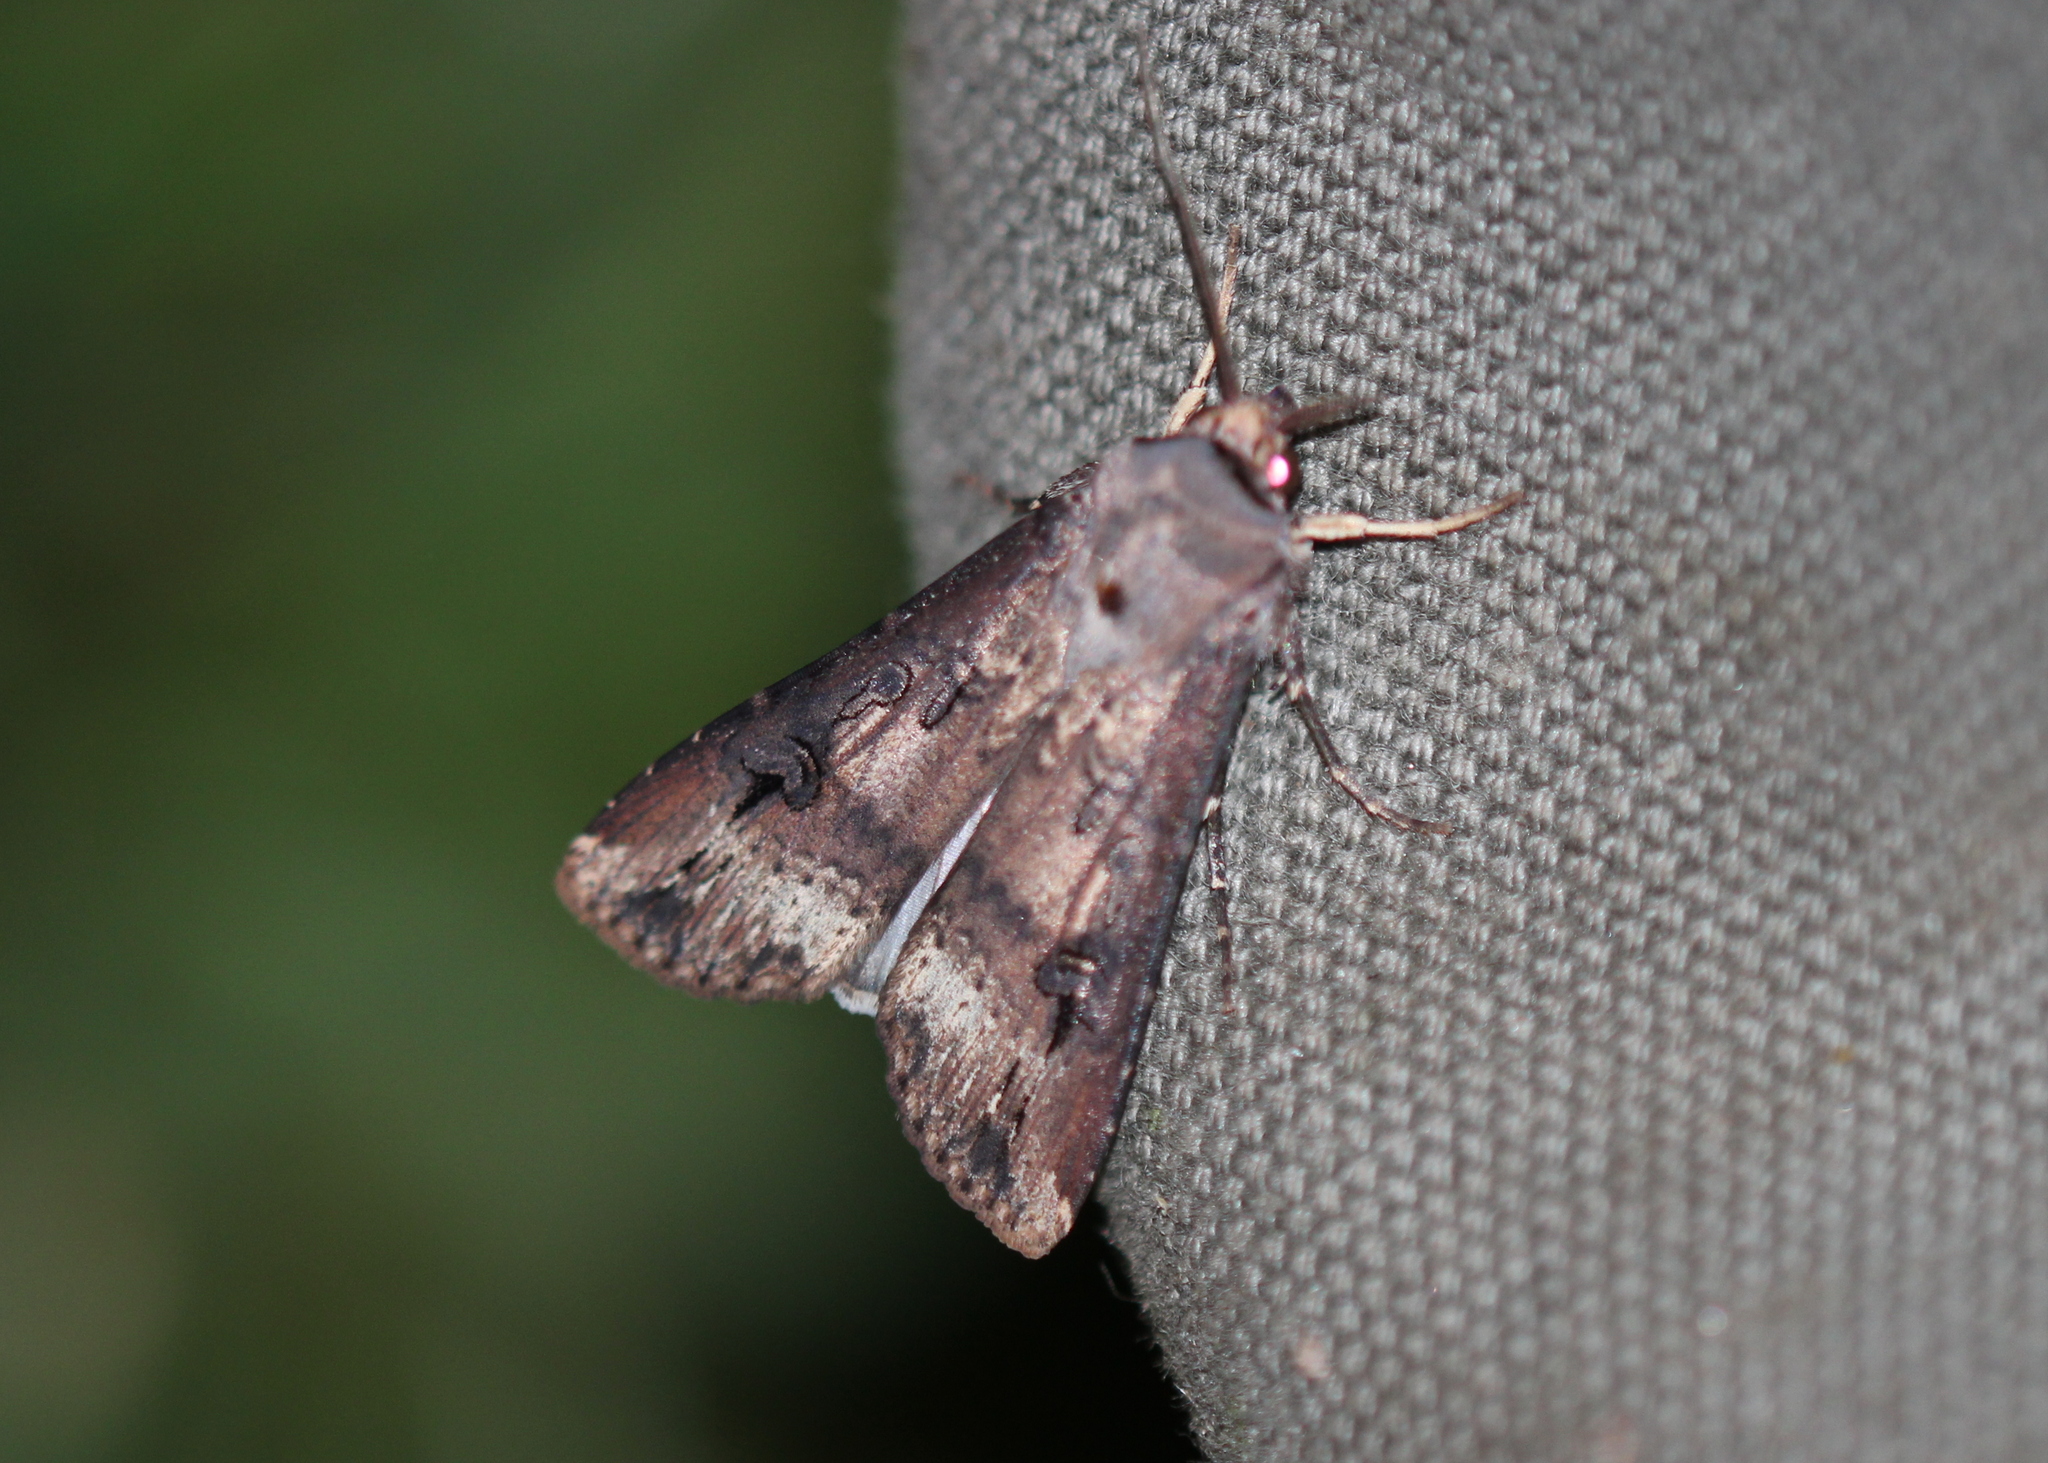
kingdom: Animalia
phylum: Arthropoda
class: Insecta
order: Lepidoptera
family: Noctuidae
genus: Agrotis
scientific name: Agrotis ipsilon
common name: Dark sword-grass
